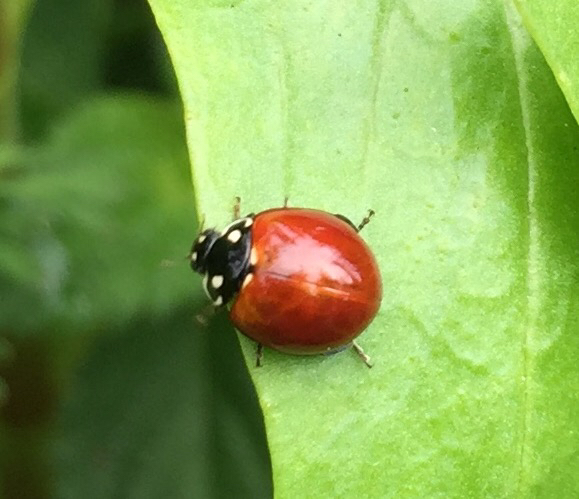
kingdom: Animalia
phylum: Arthropoda
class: Insecta
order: Coleoptera
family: Coccinellidae
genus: Cycloneda
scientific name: Cycloneda sanguinea
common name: Ladybird beetle
